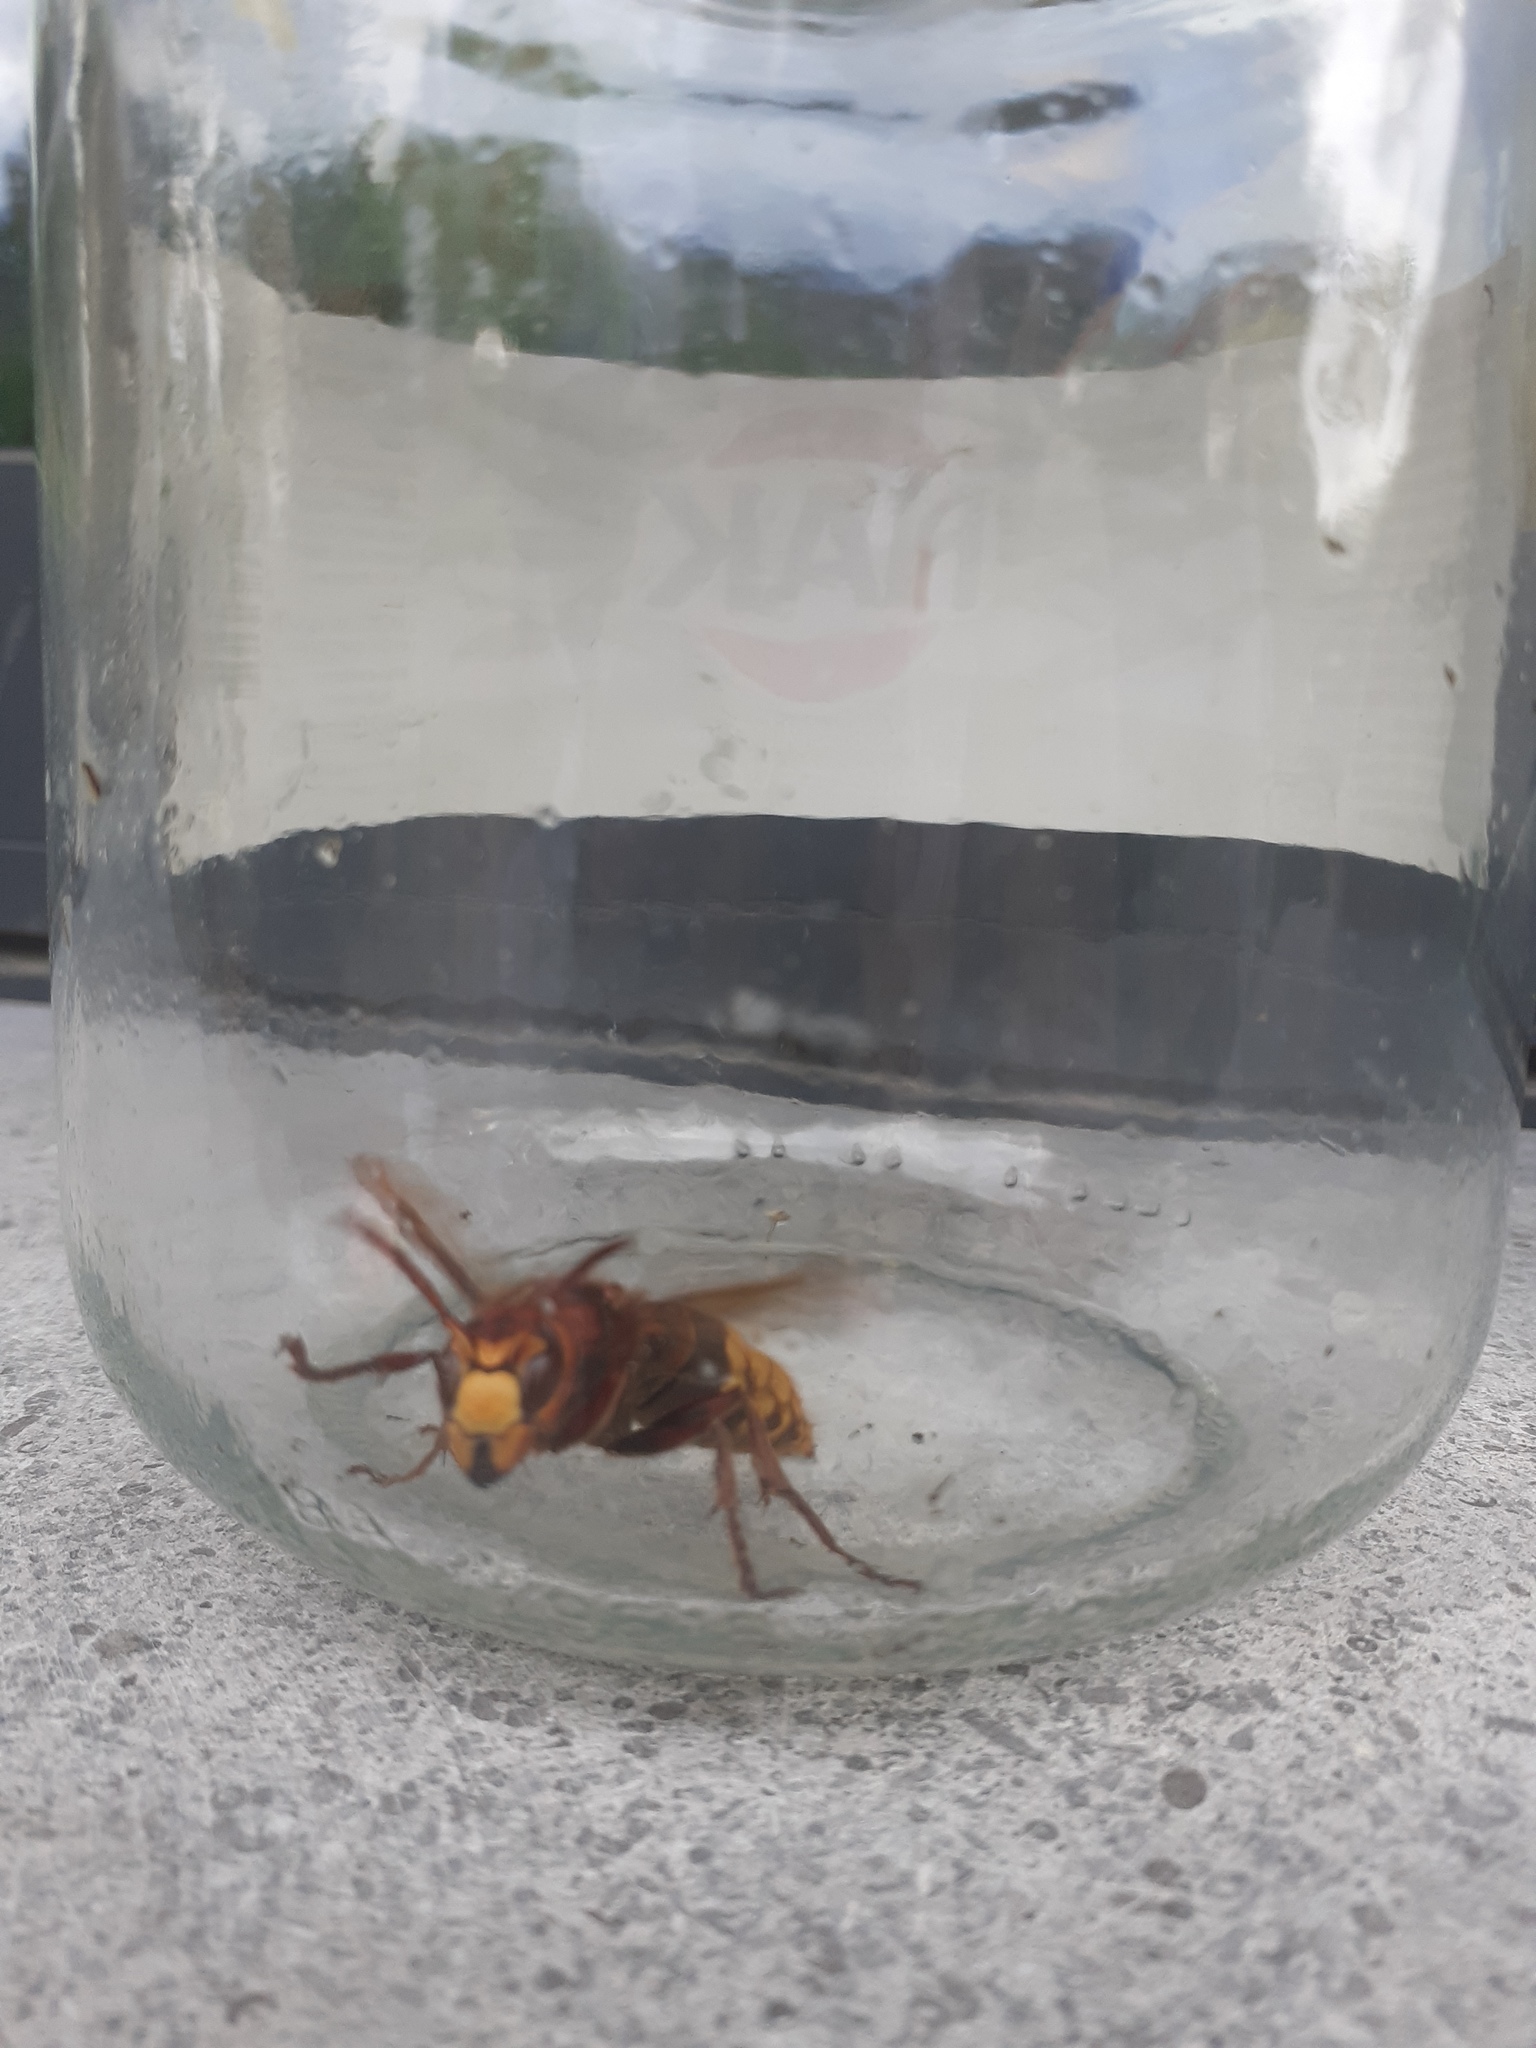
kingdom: Animalia
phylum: Arthropoda
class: Insecta
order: Hymenoptera
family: Vespidae
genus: Vespa
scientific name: Vespa crabro
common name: Hornet
